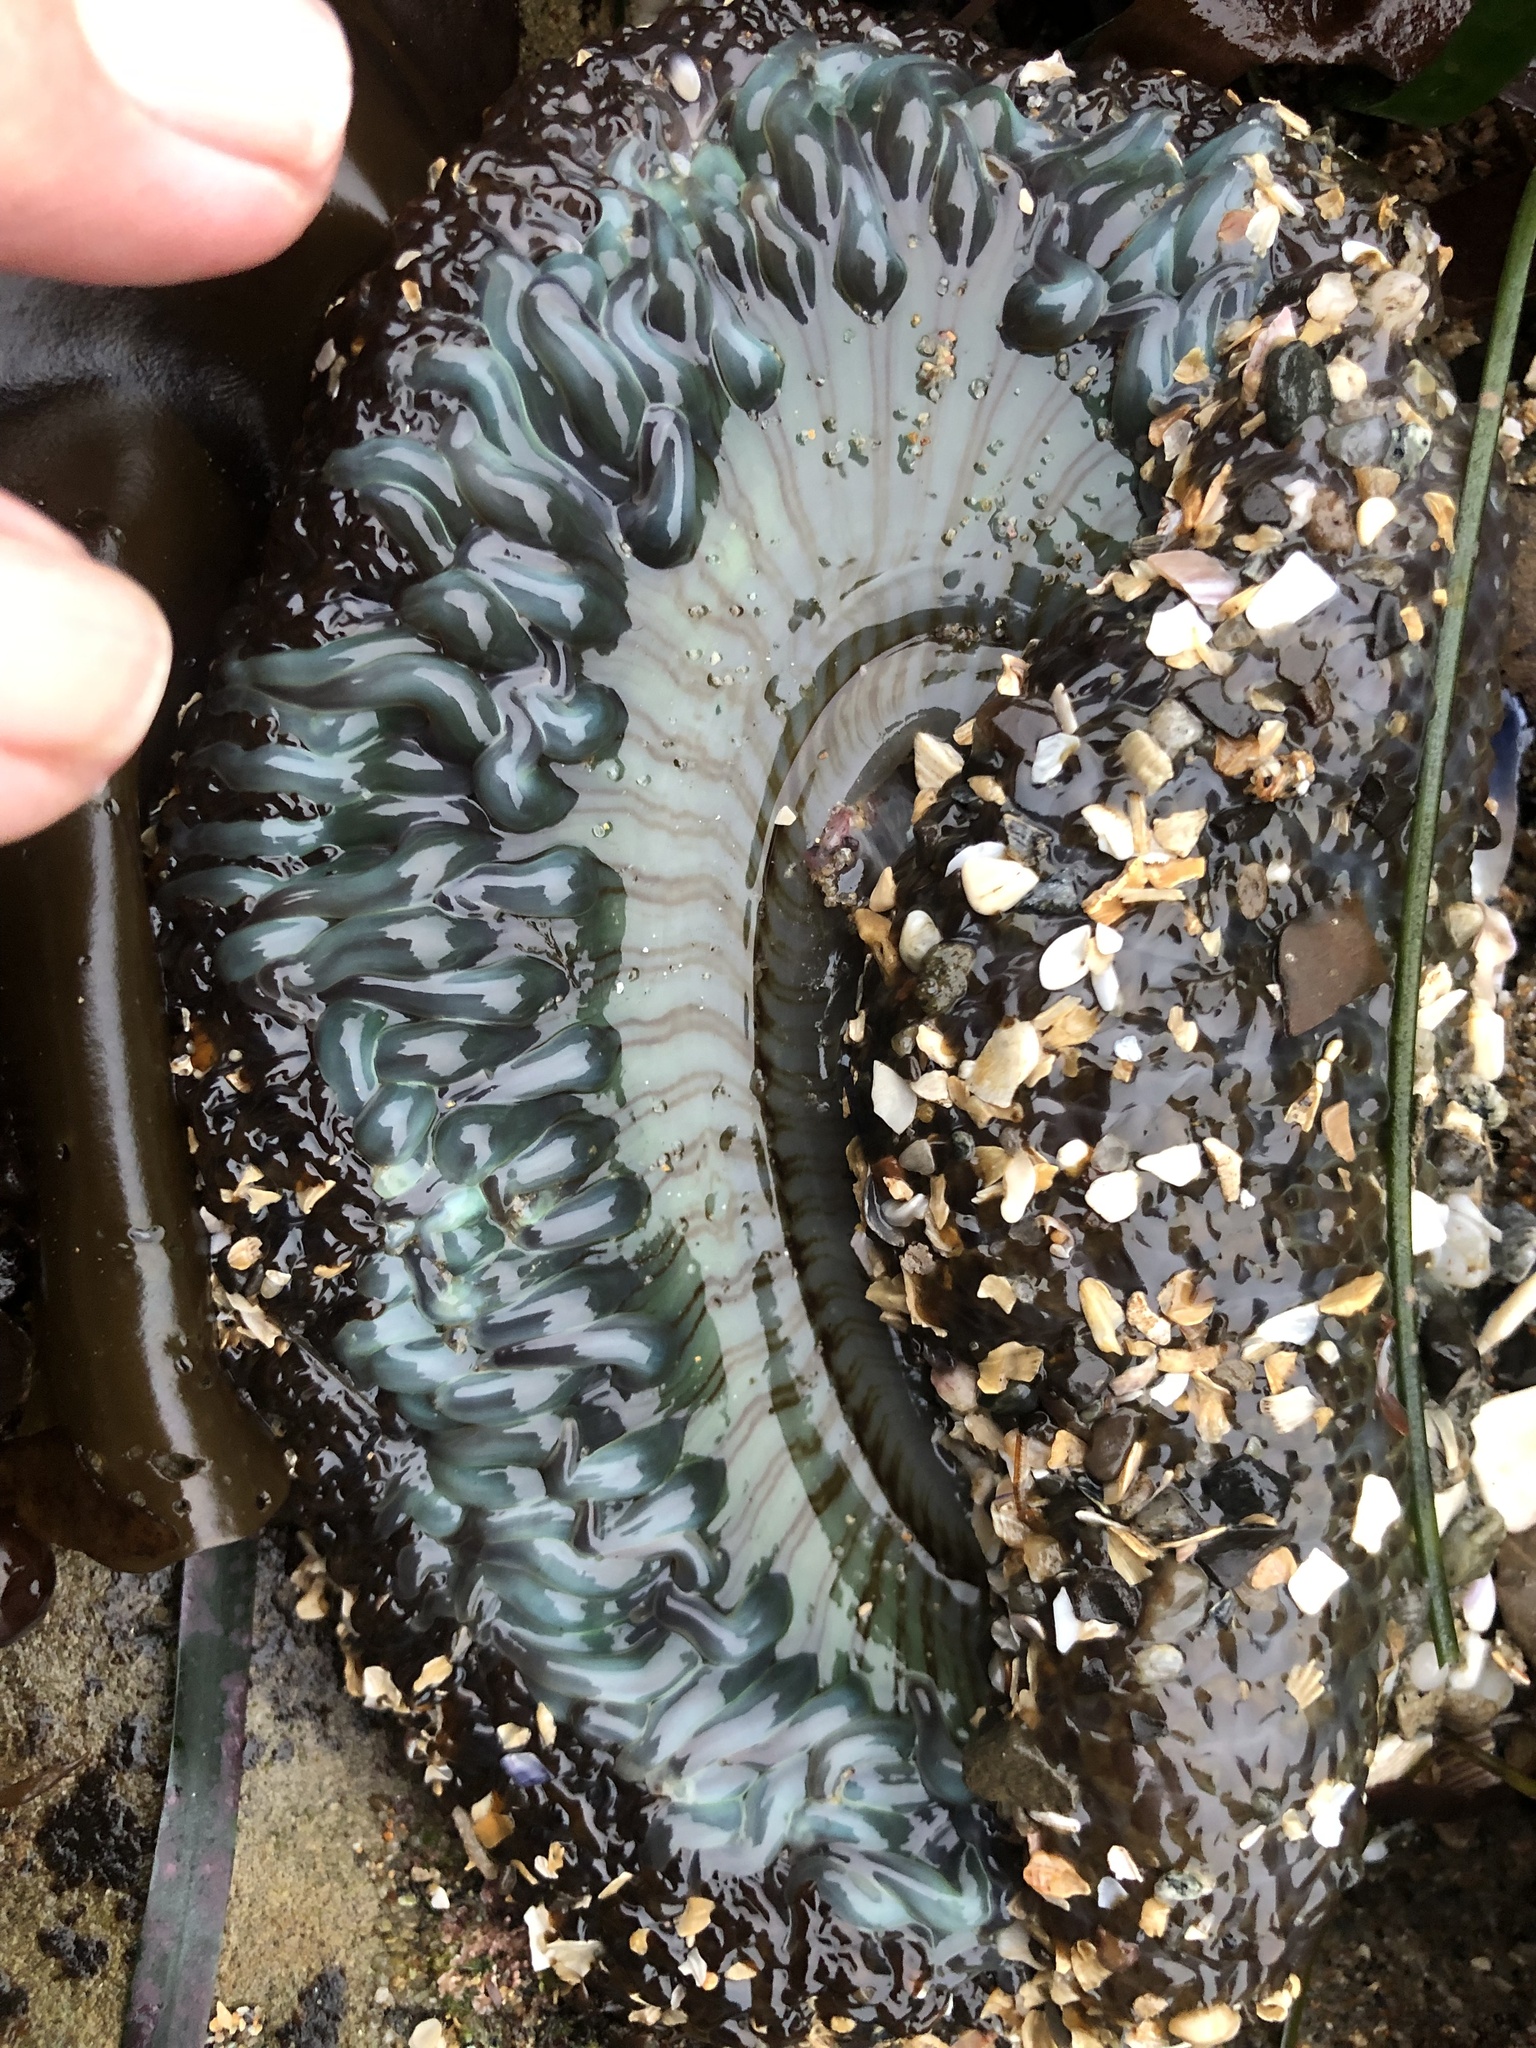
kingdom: Animalia
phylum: Cnidaria
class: Anthozoa
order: Actiniaria
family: Actiniidae
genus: Anthopleura
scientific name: Anthopleura sola
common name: Sun anemone
